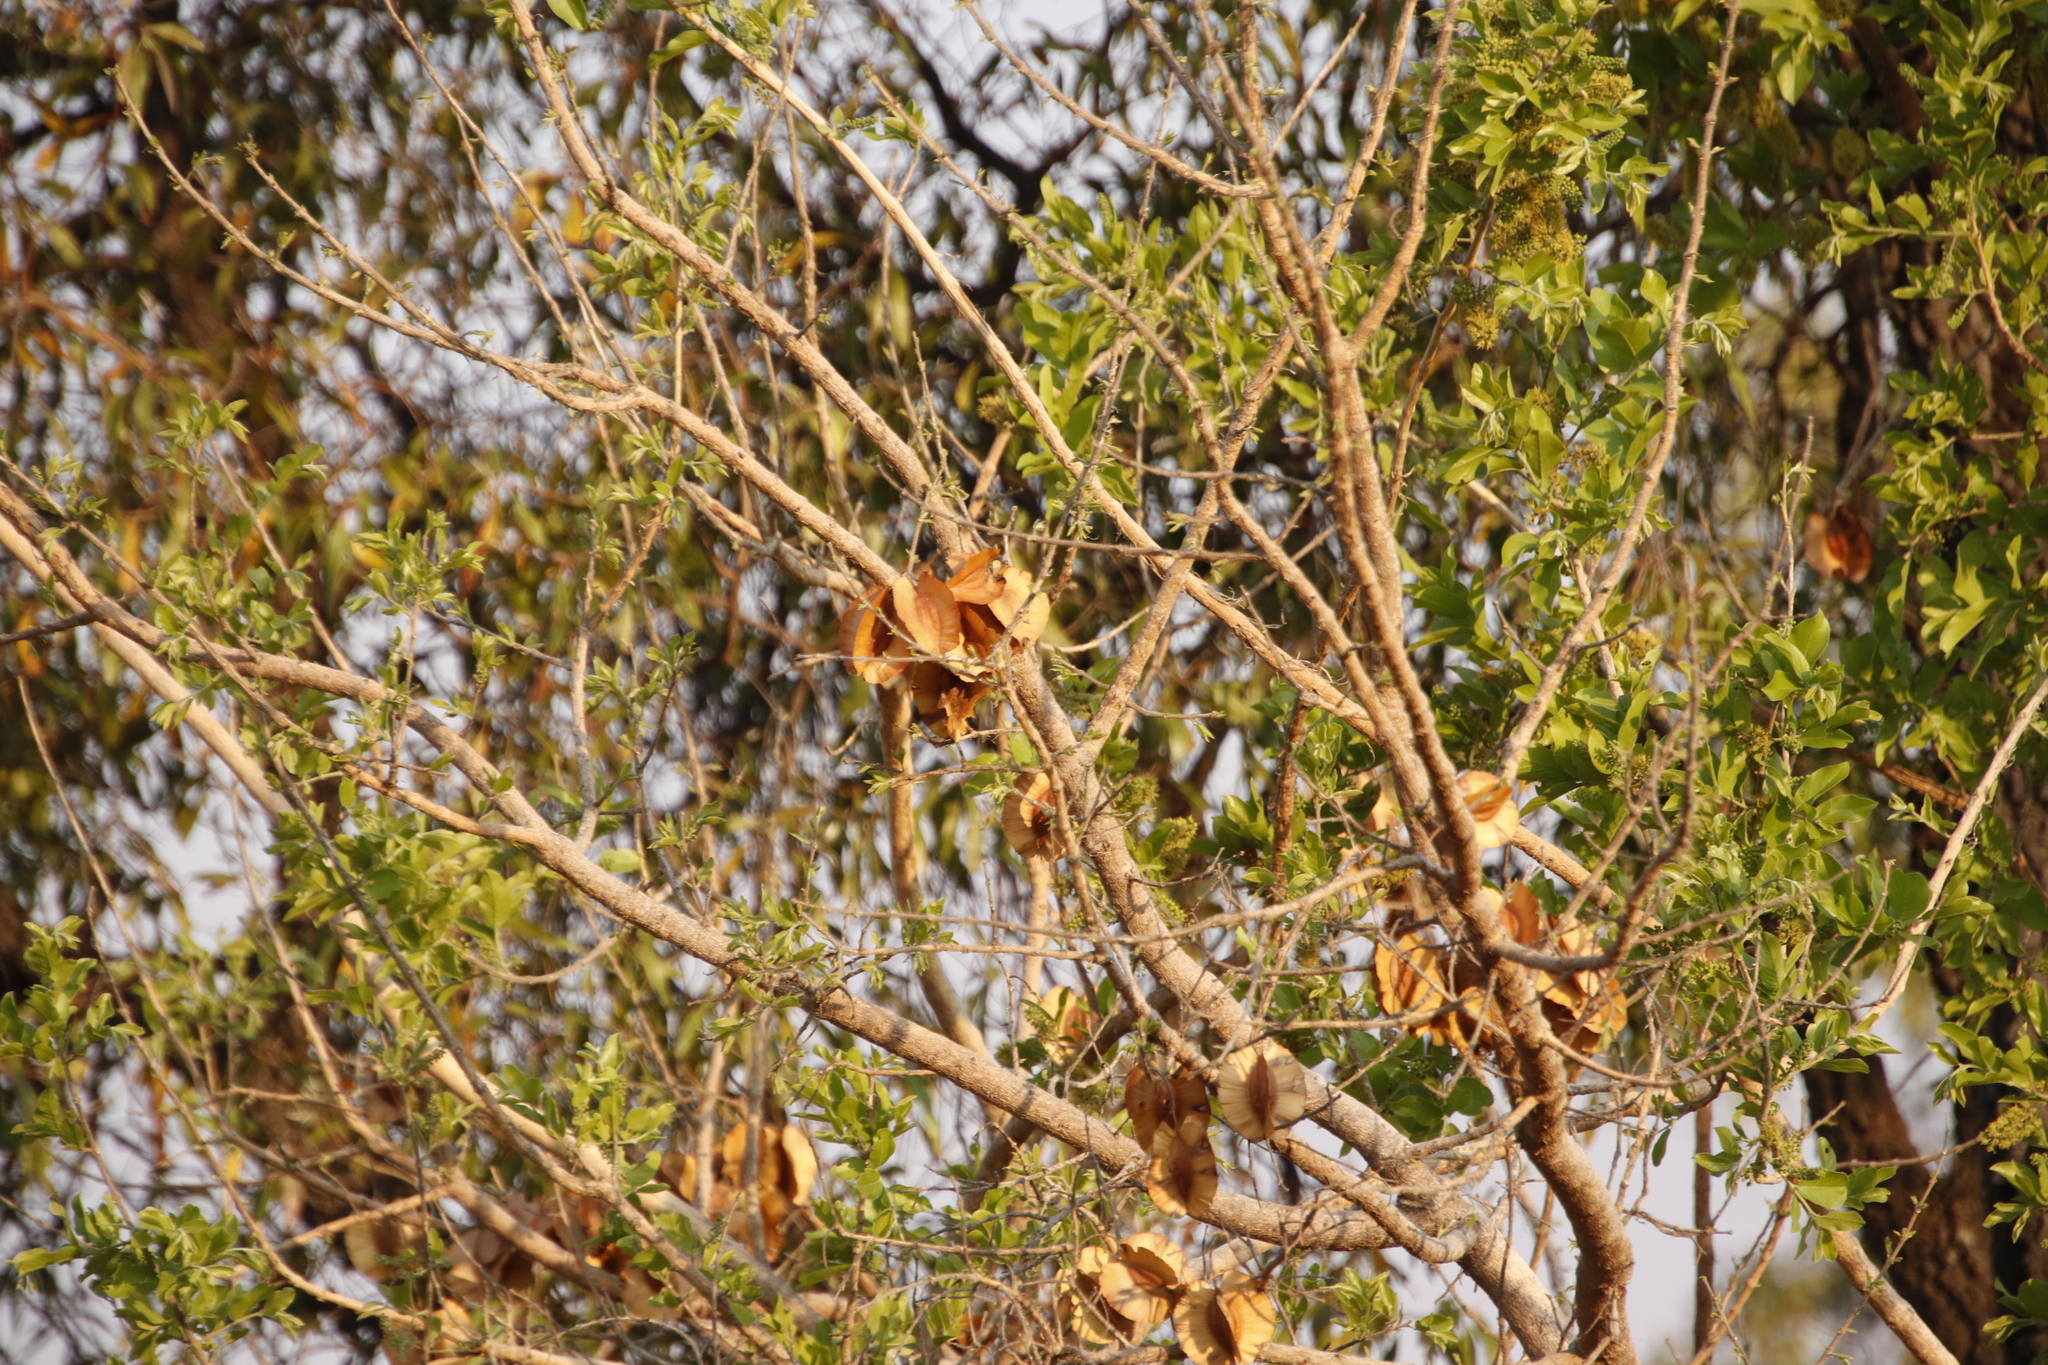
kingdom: Plantae
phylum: Tracheophyta
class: Magnoliopsida
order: Myrtales
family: Combretaceae
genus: Combretum
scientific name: Combretum zeyheri
